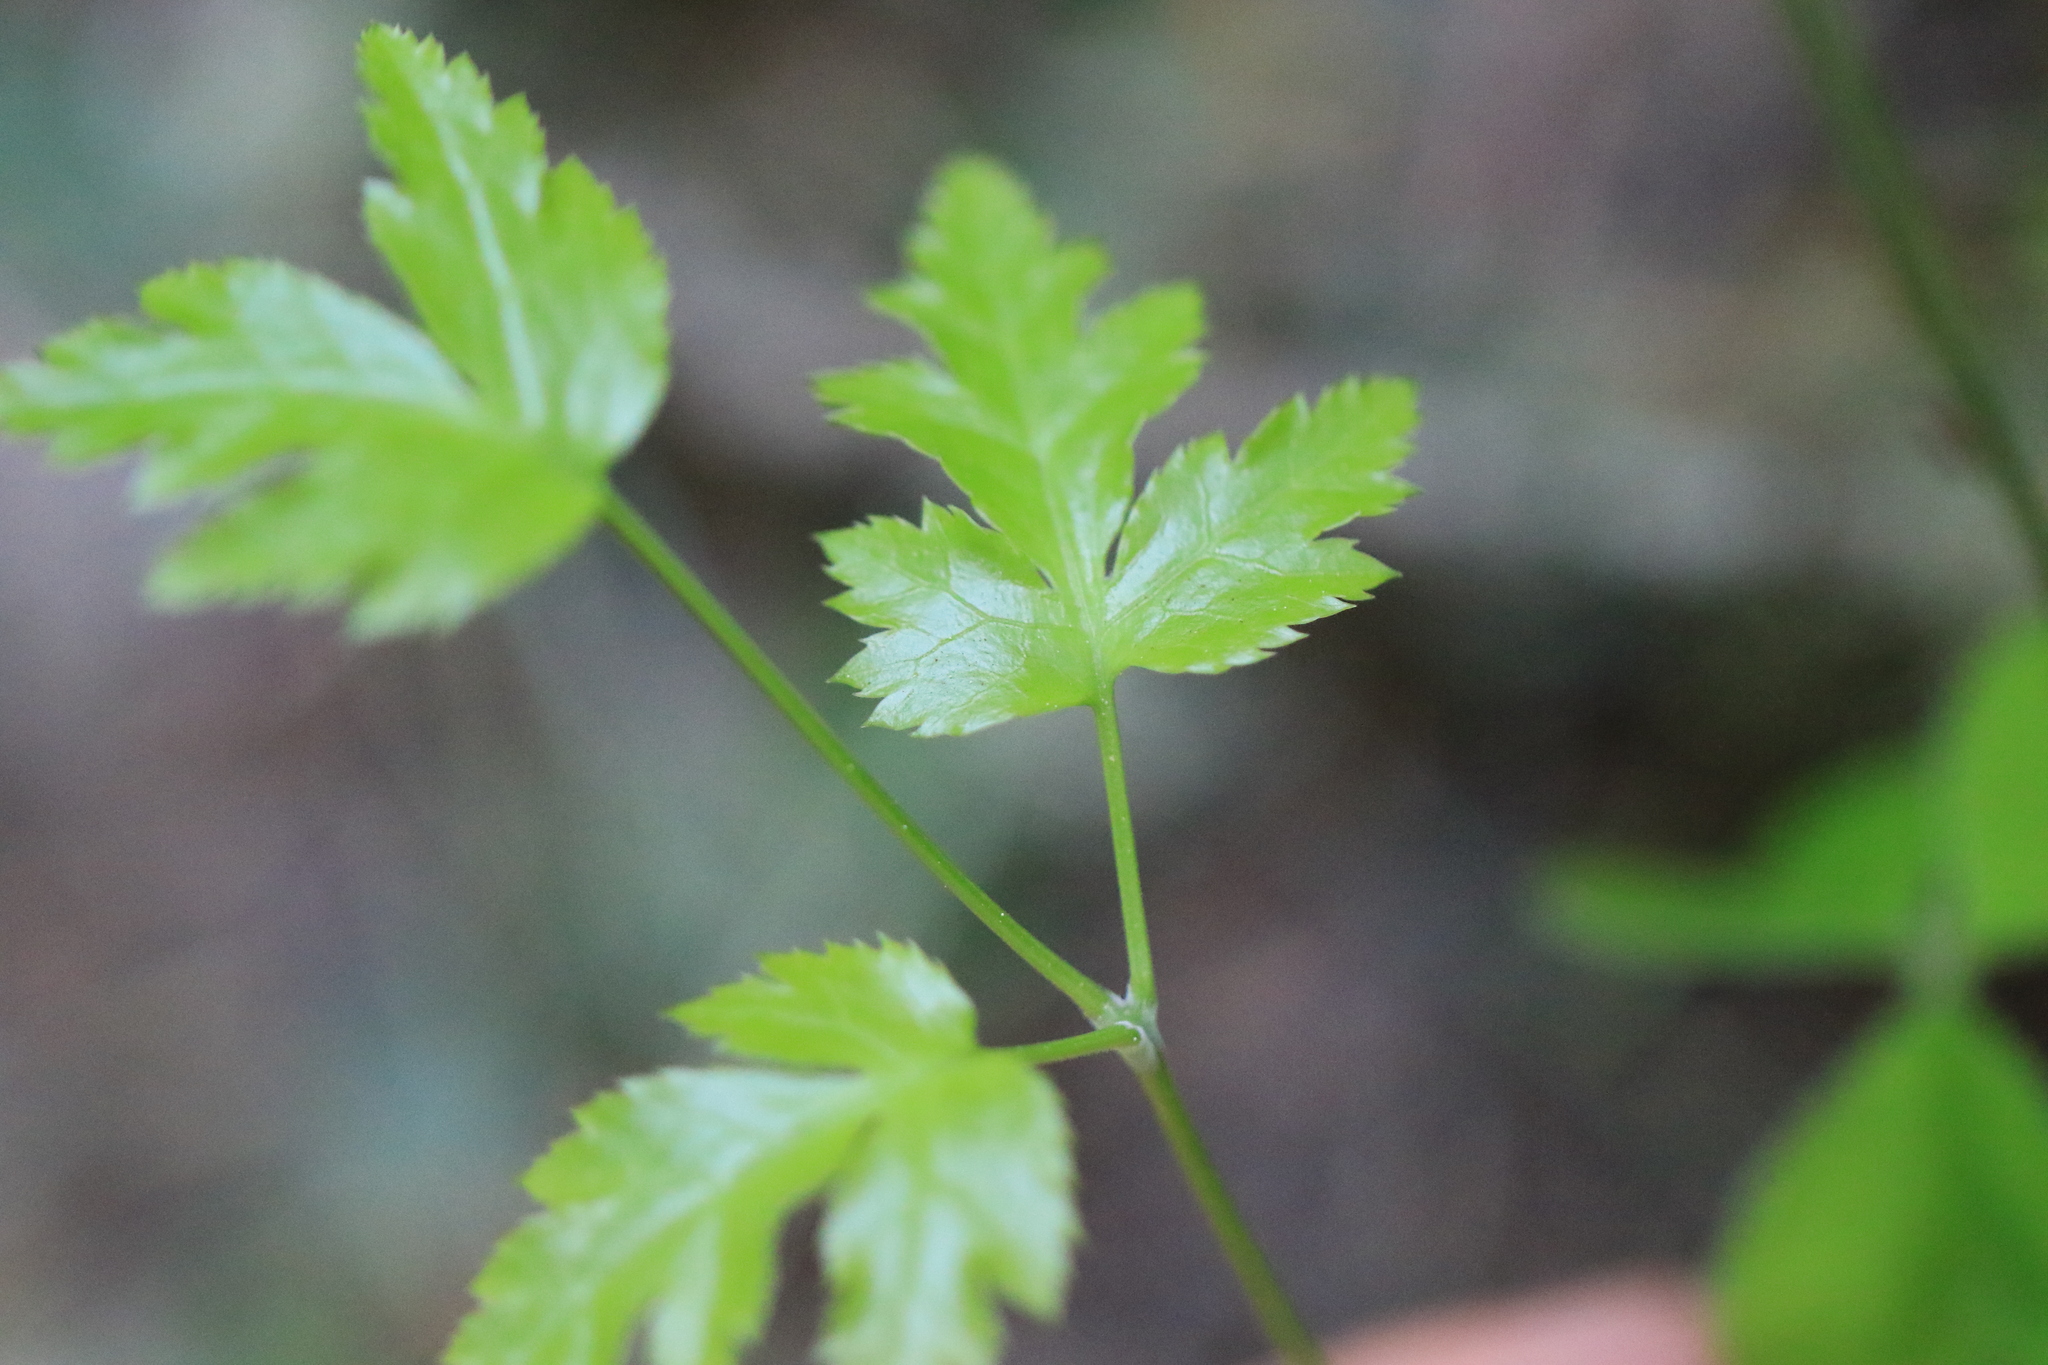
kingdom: Plantae
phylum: Tracheophyta
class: Magnoliopsida
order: Ranunculales
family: Ranunculaceae
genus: Coptis
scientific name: Coptis laciniata
